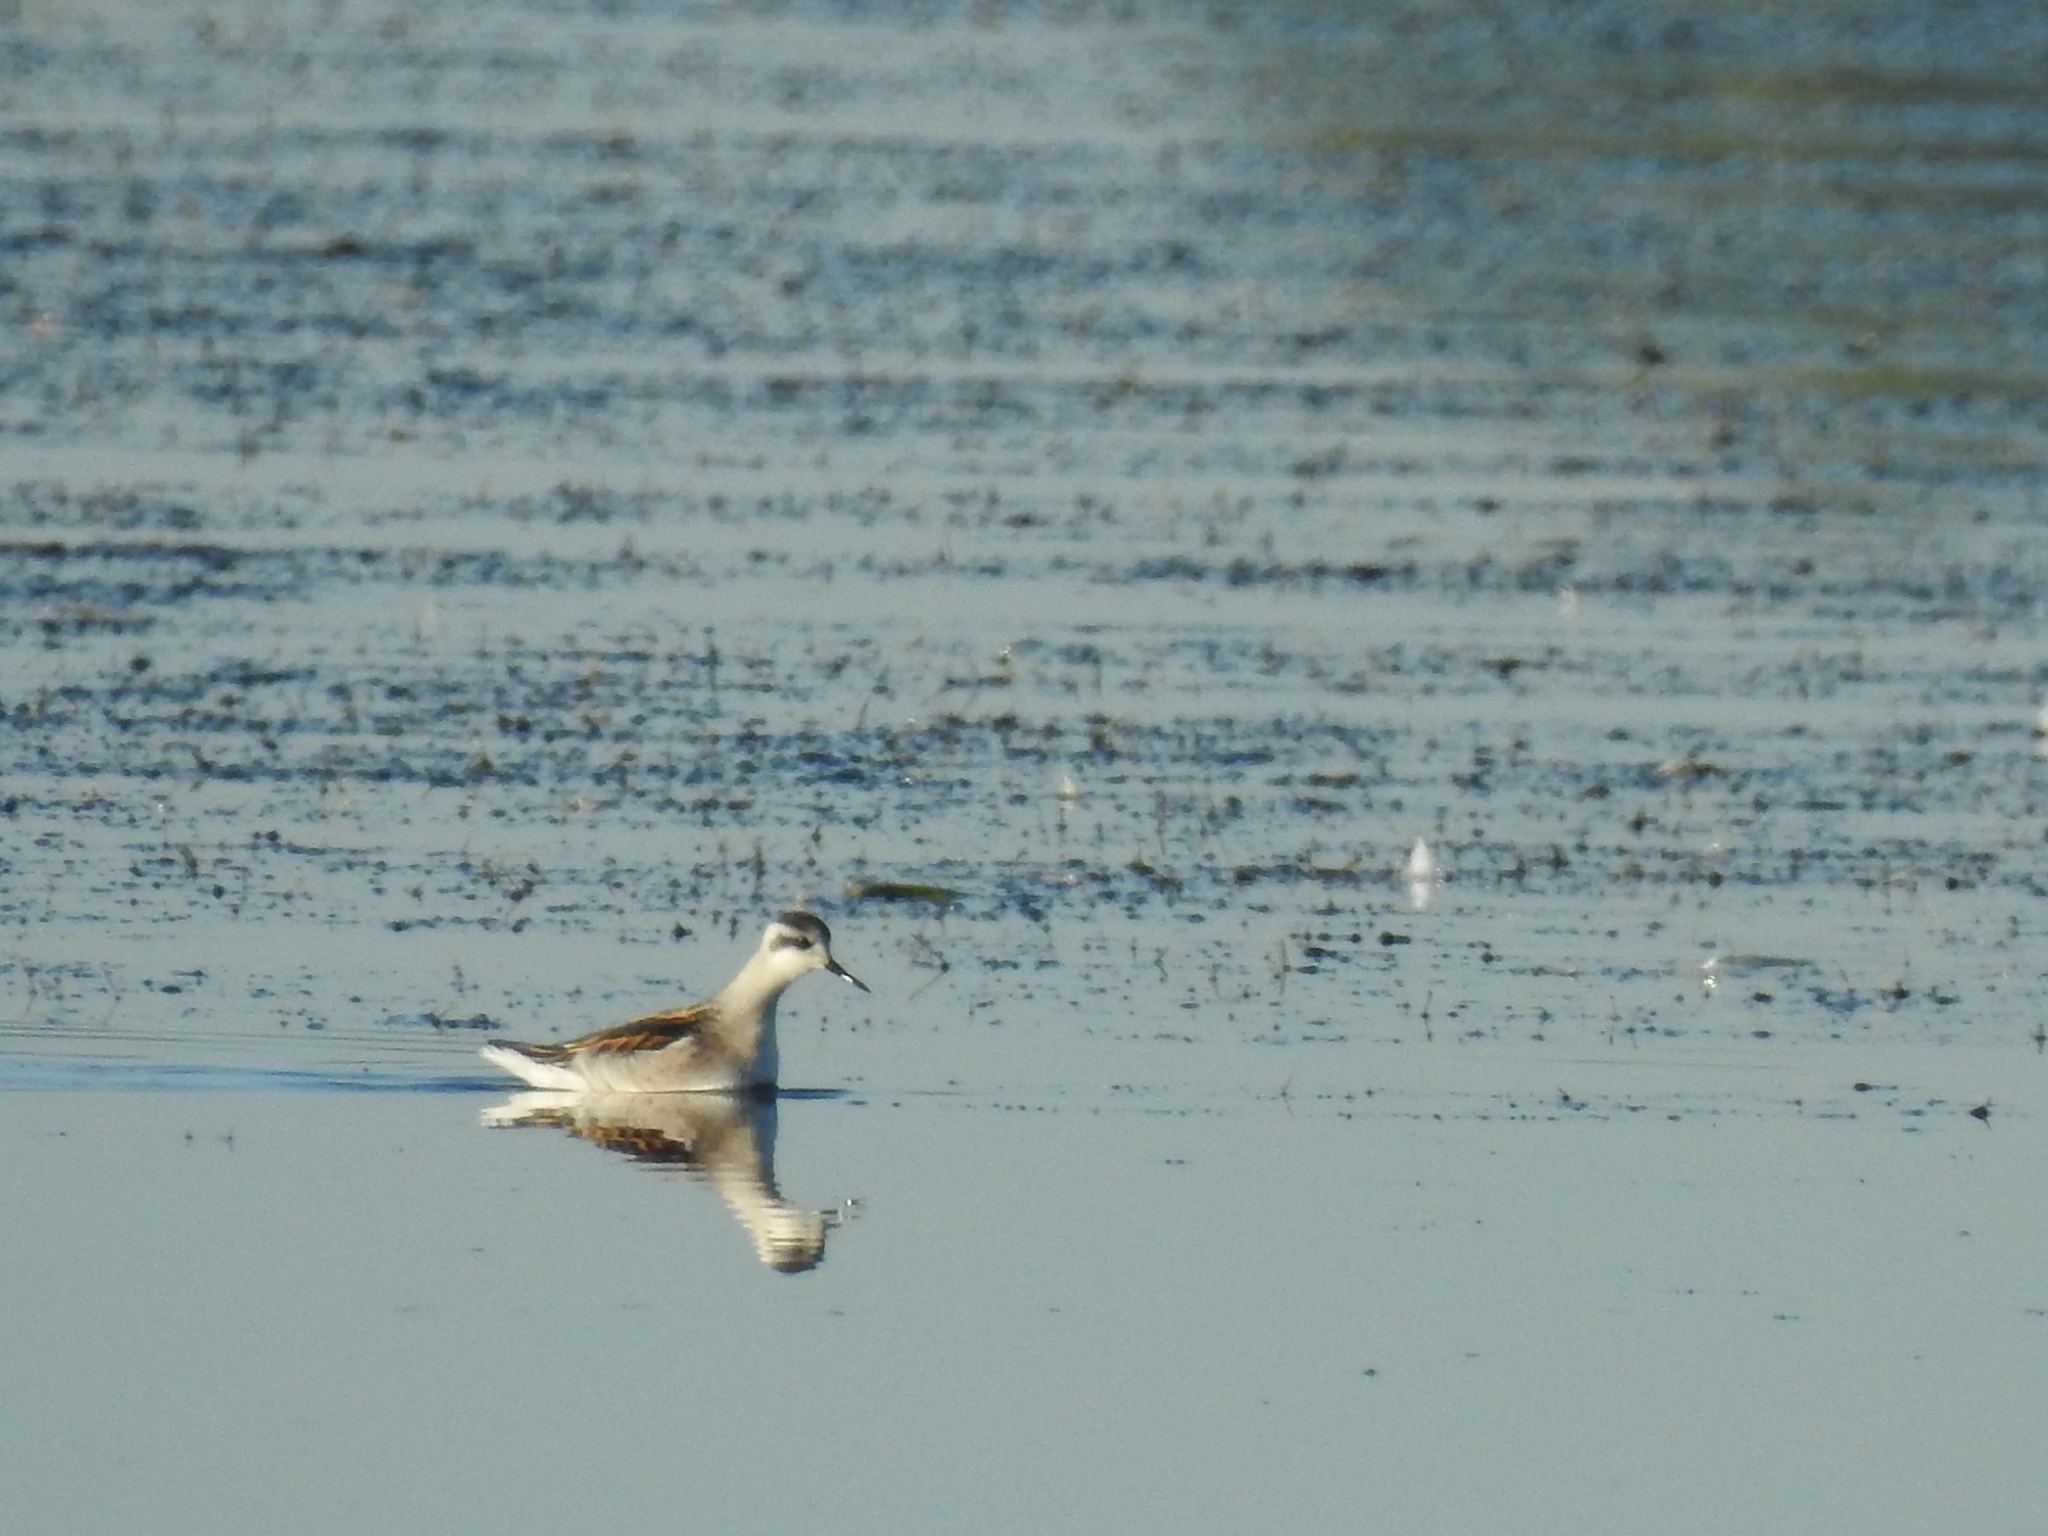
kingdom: Animalia
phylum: Chordata
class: Aves
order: Charadriiformes
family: Scolopacidae
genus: Phalaropus
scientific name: Phalaropus lobatus
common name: Red-necked phalarope
